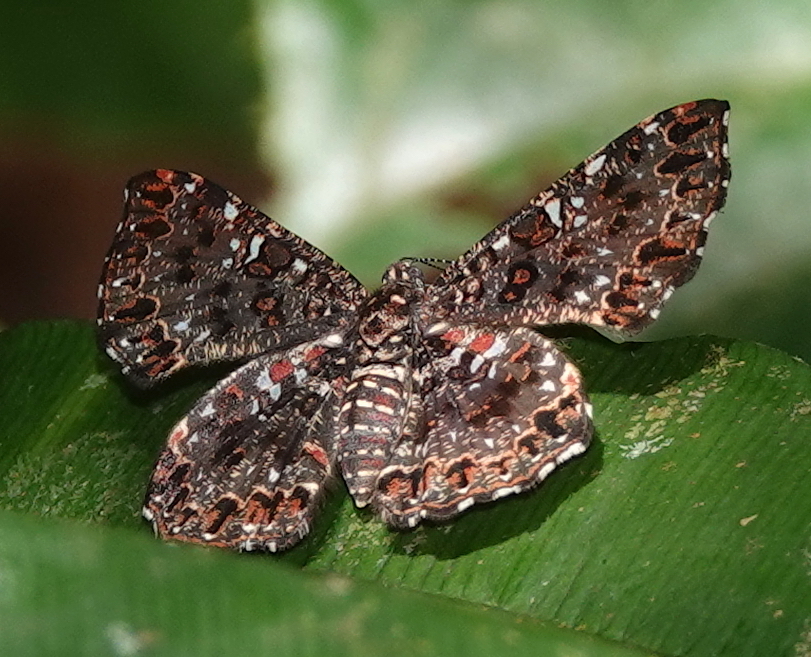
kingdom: Animalia
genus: Calydna
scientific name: Calydna
